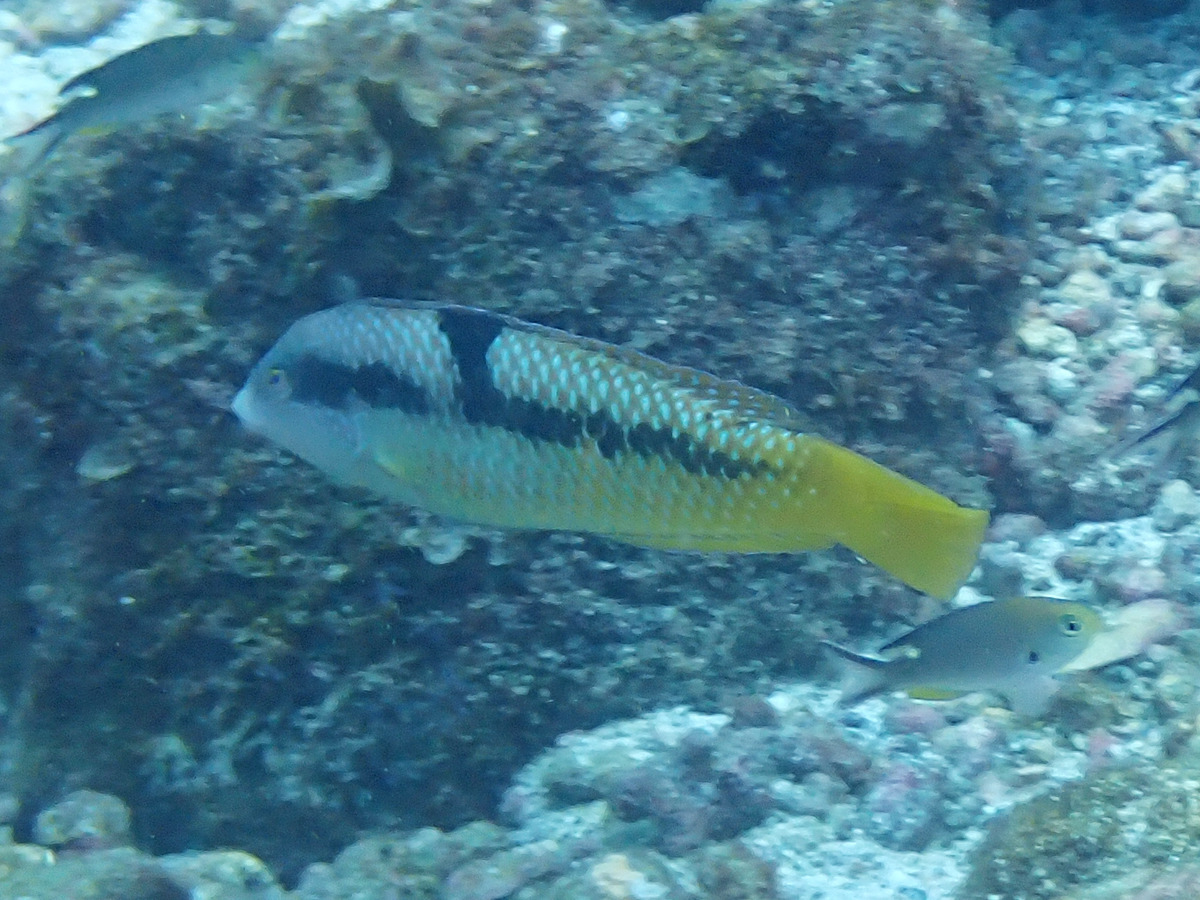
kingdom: Animalia
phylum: Chordata
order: Perciformes
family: Labridae
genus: Halichoeres
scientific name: Halichoeres nicholsi
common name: Spinster wrasse
